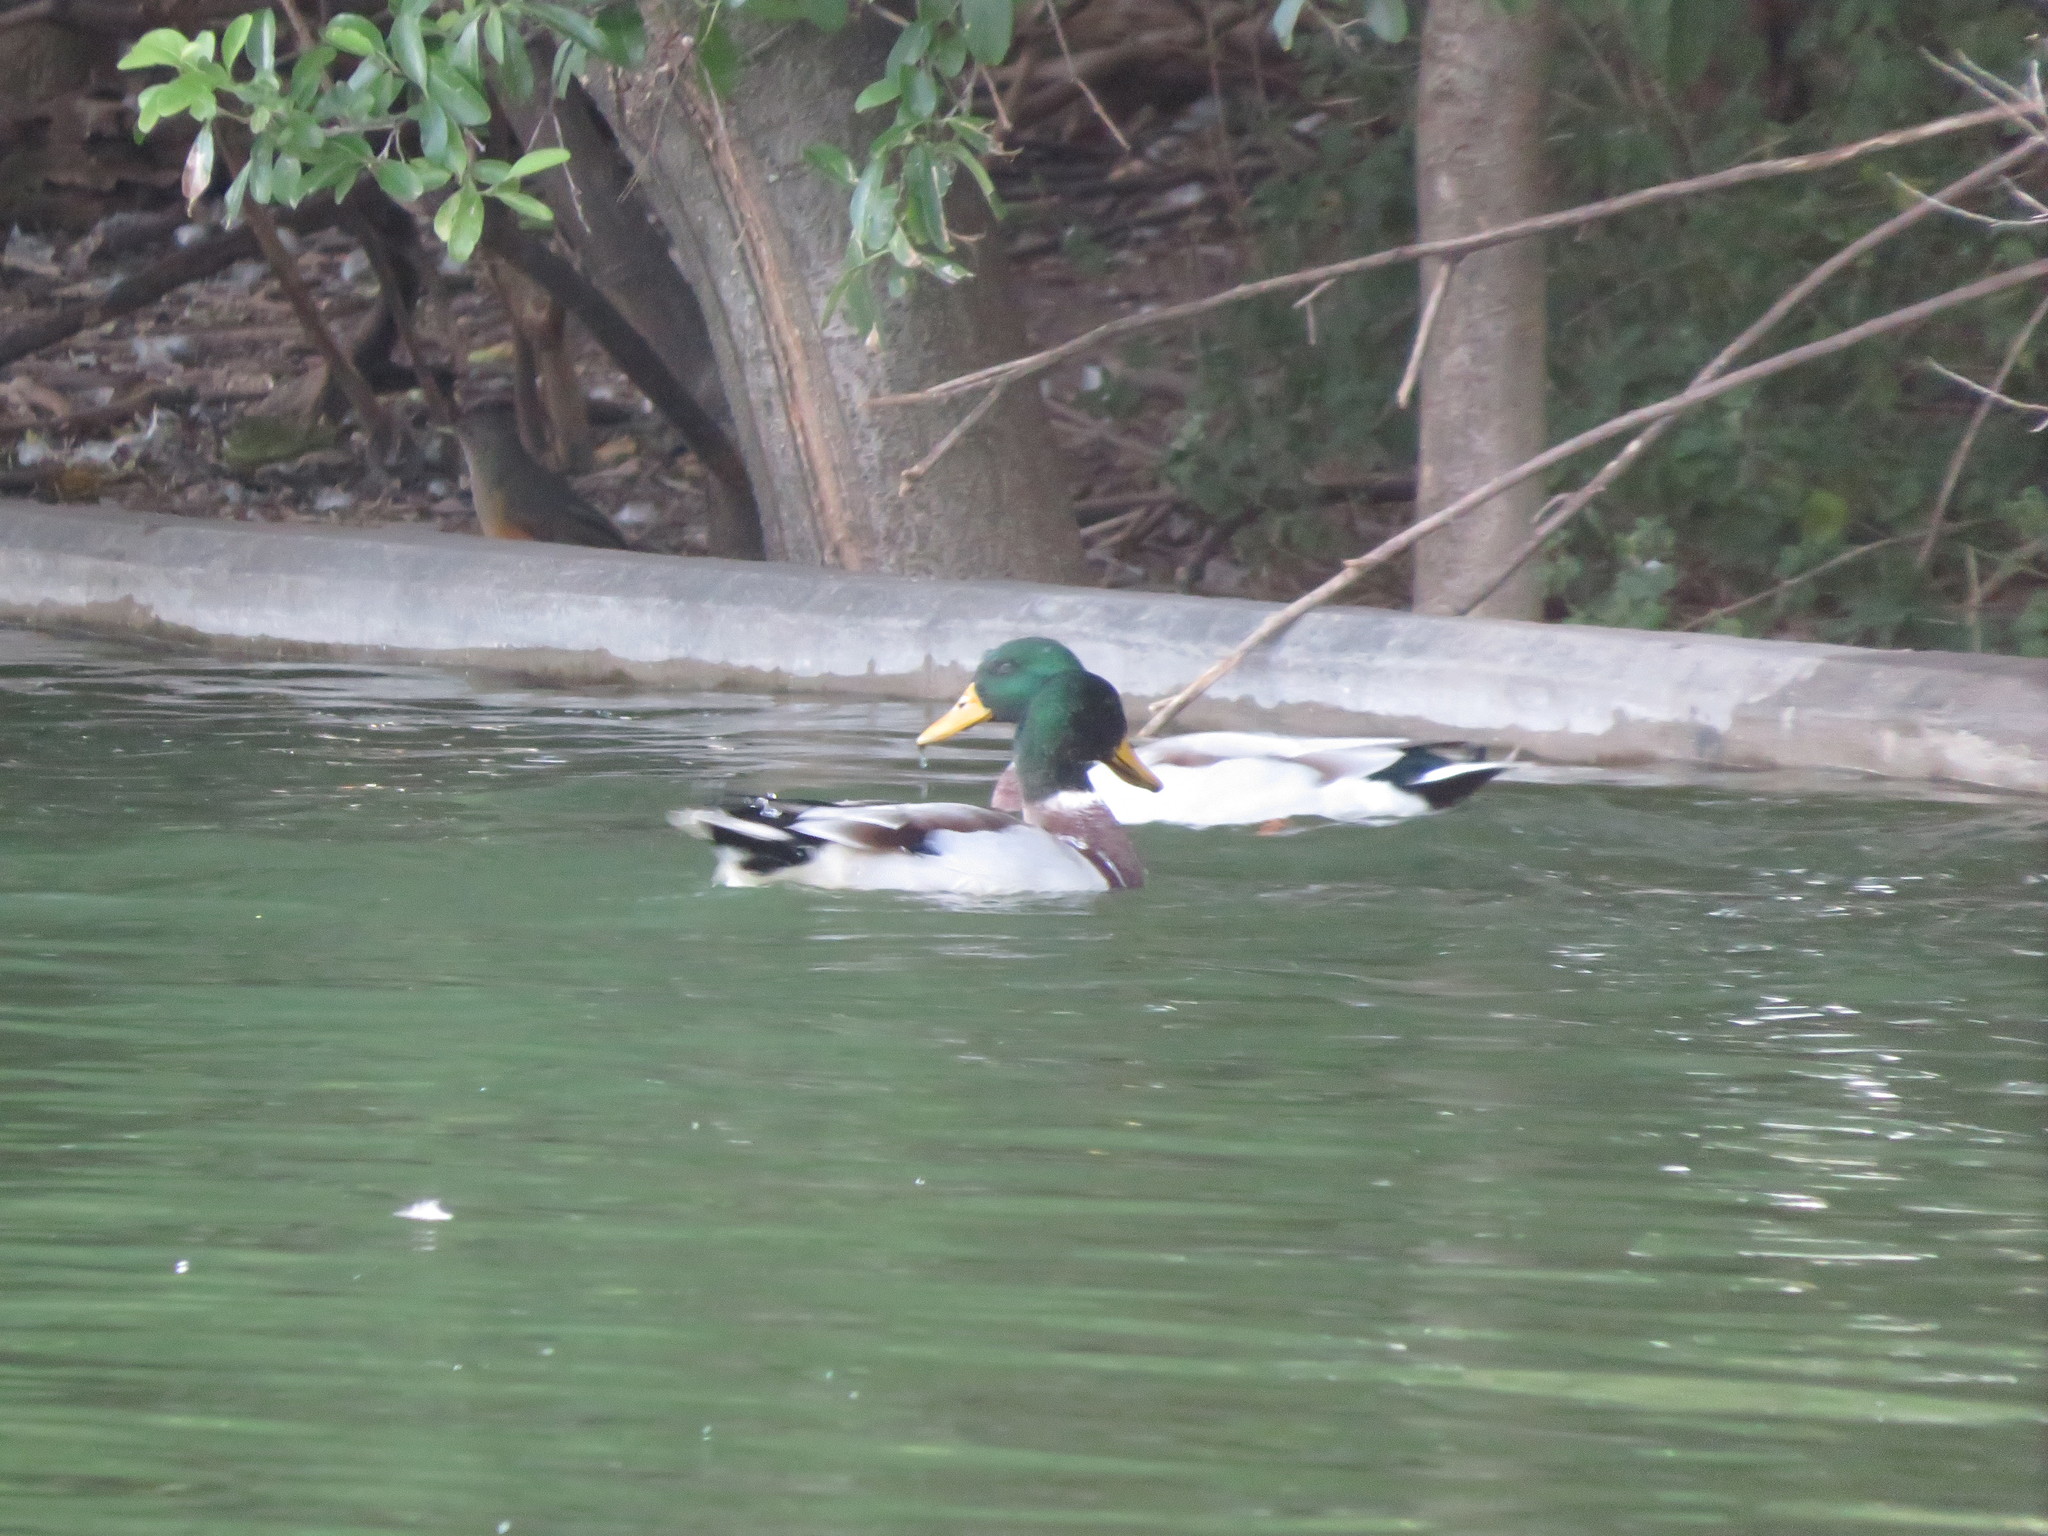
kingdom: Animalia
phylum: Chordata
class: Aves
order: Anseriformes
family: Anatidae
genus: Anas
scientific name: Anas platyrhynchos
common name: Mallard
